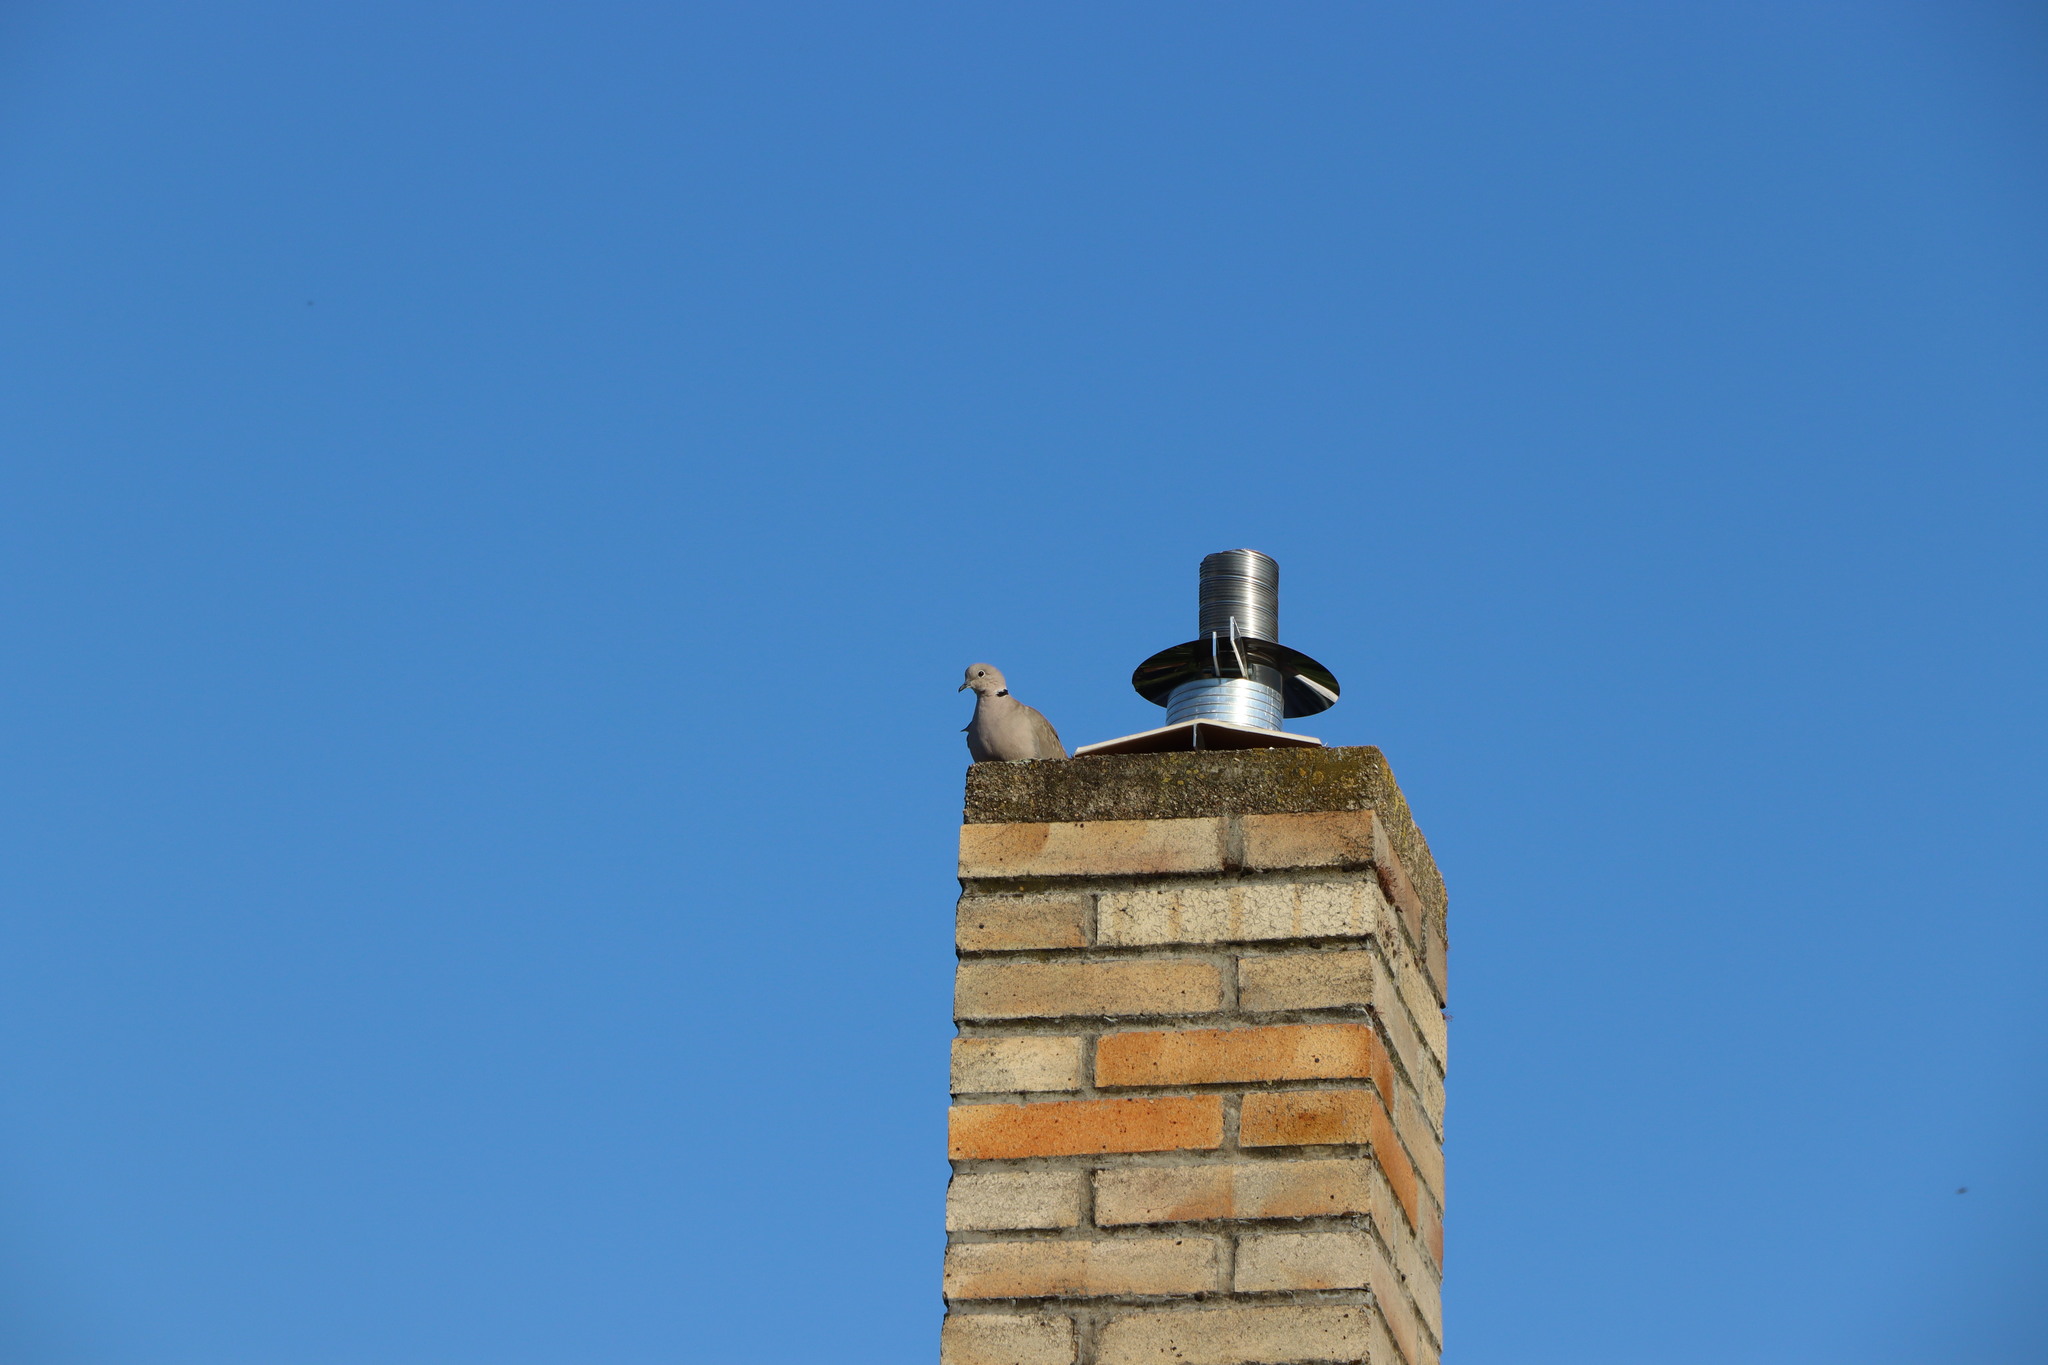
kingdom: Animalia
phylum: Chordata
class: Aves
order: Columbiformes
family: Columbidae
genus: Streptopelia
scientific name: Streptopelia decaocto
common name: Eurasian collared dove
